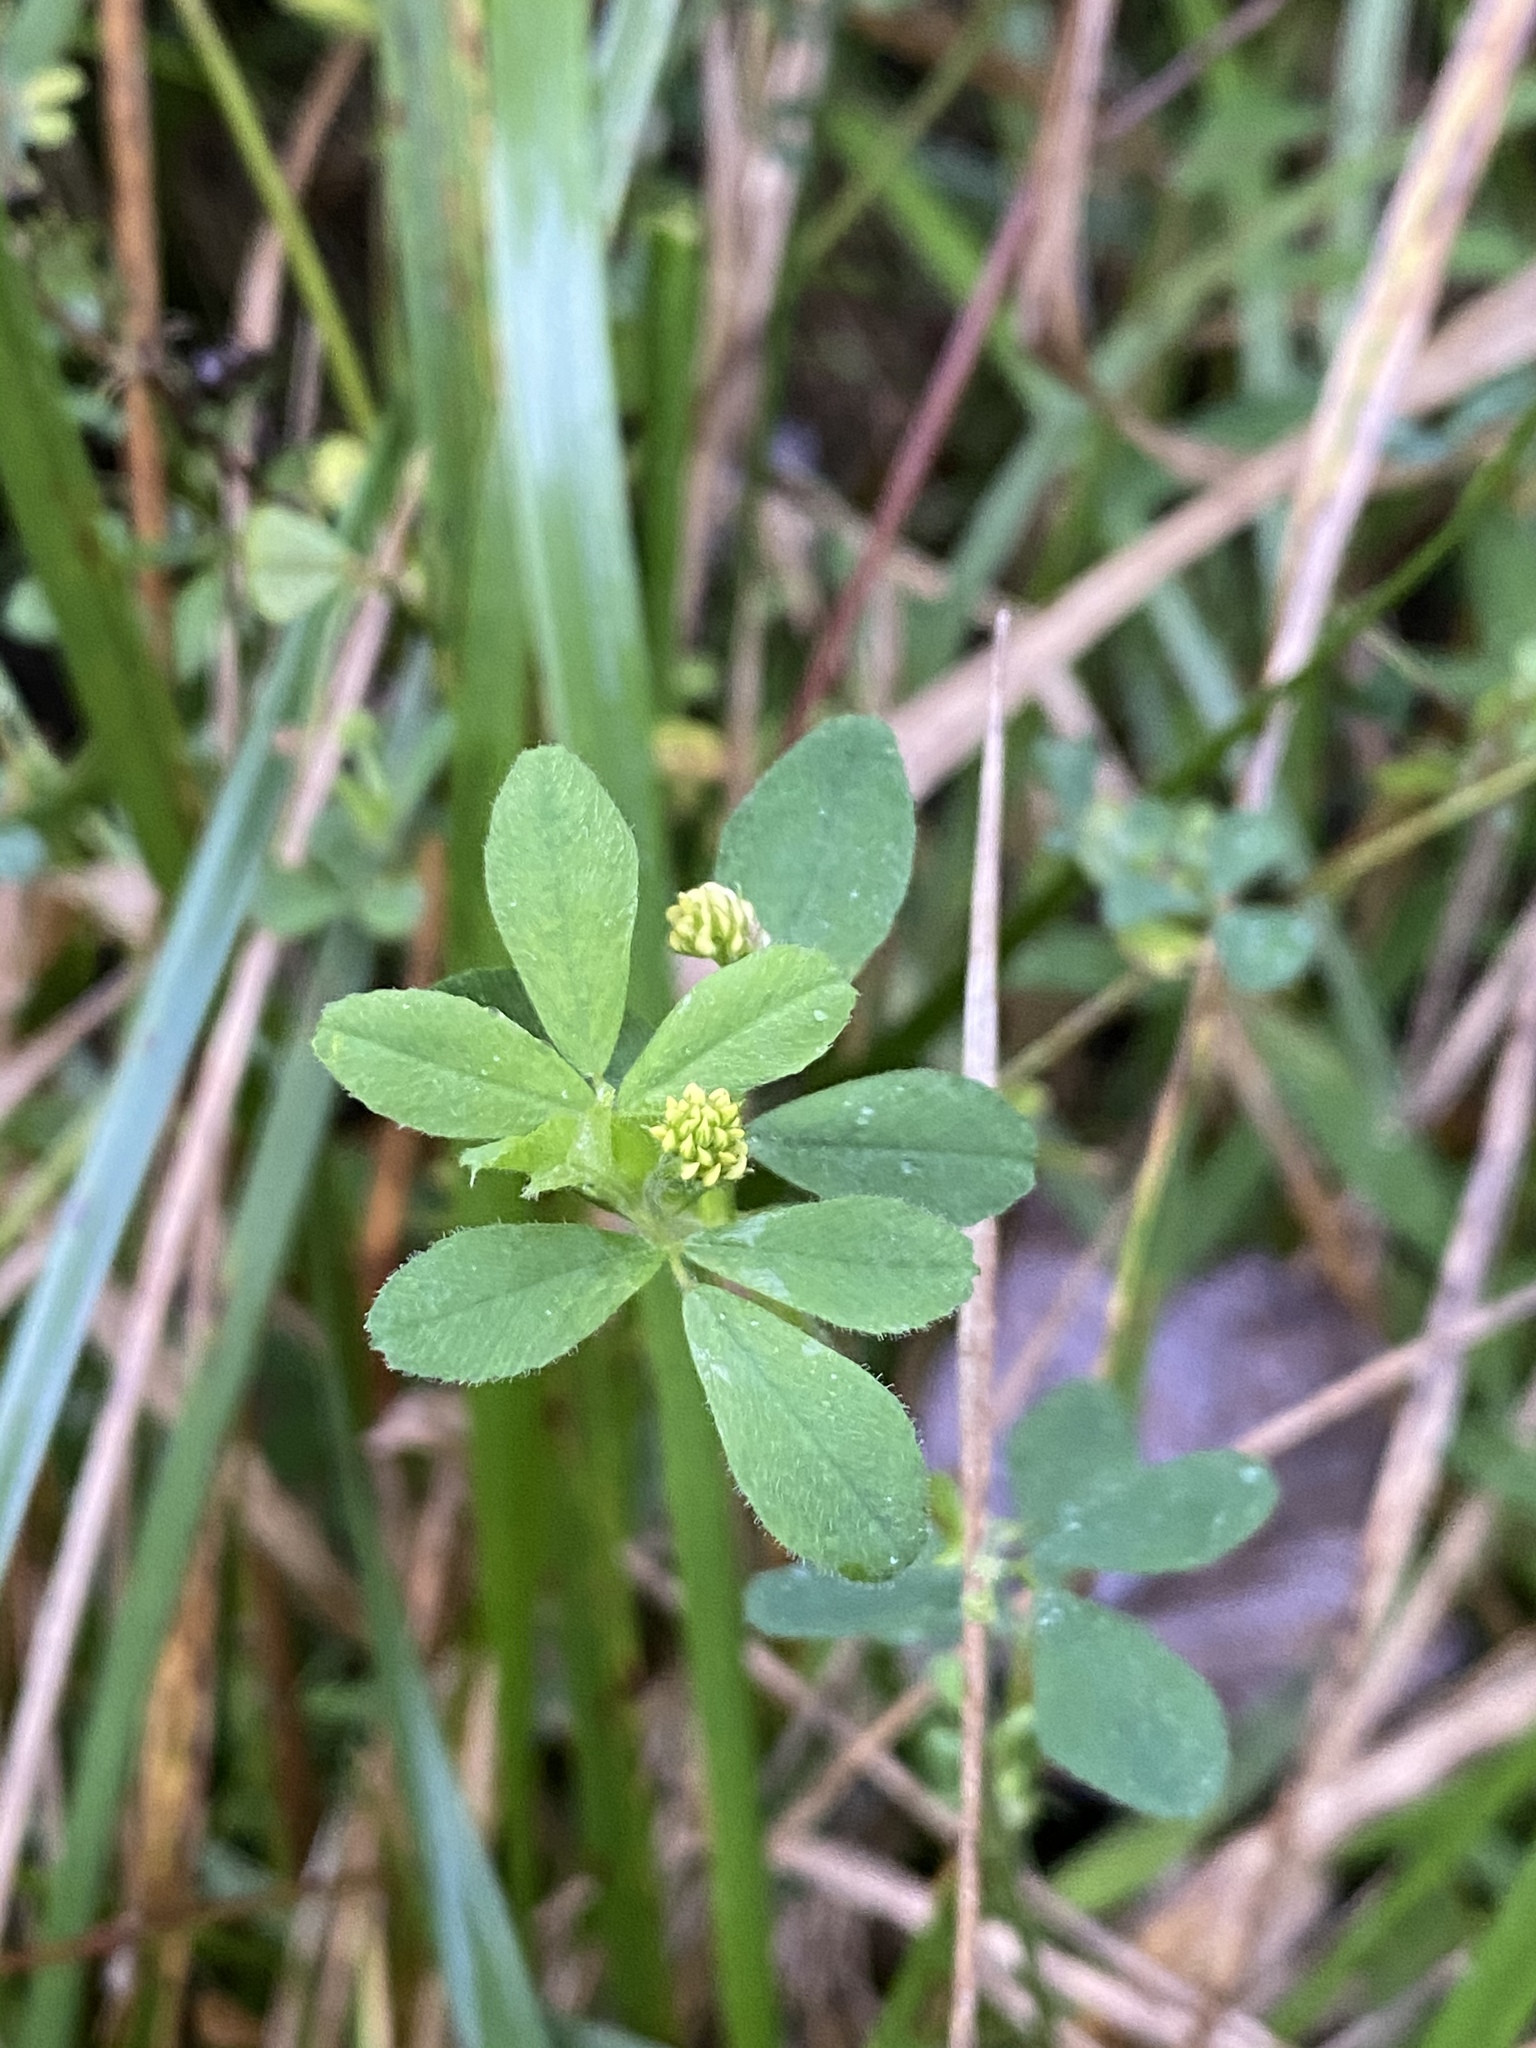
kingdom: Plantae
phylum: Tracheophyta
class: Magnoliopsida
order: Fabales
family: Fabaceae
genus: Medicago
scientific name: Medicago lupulina
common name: Black medick
